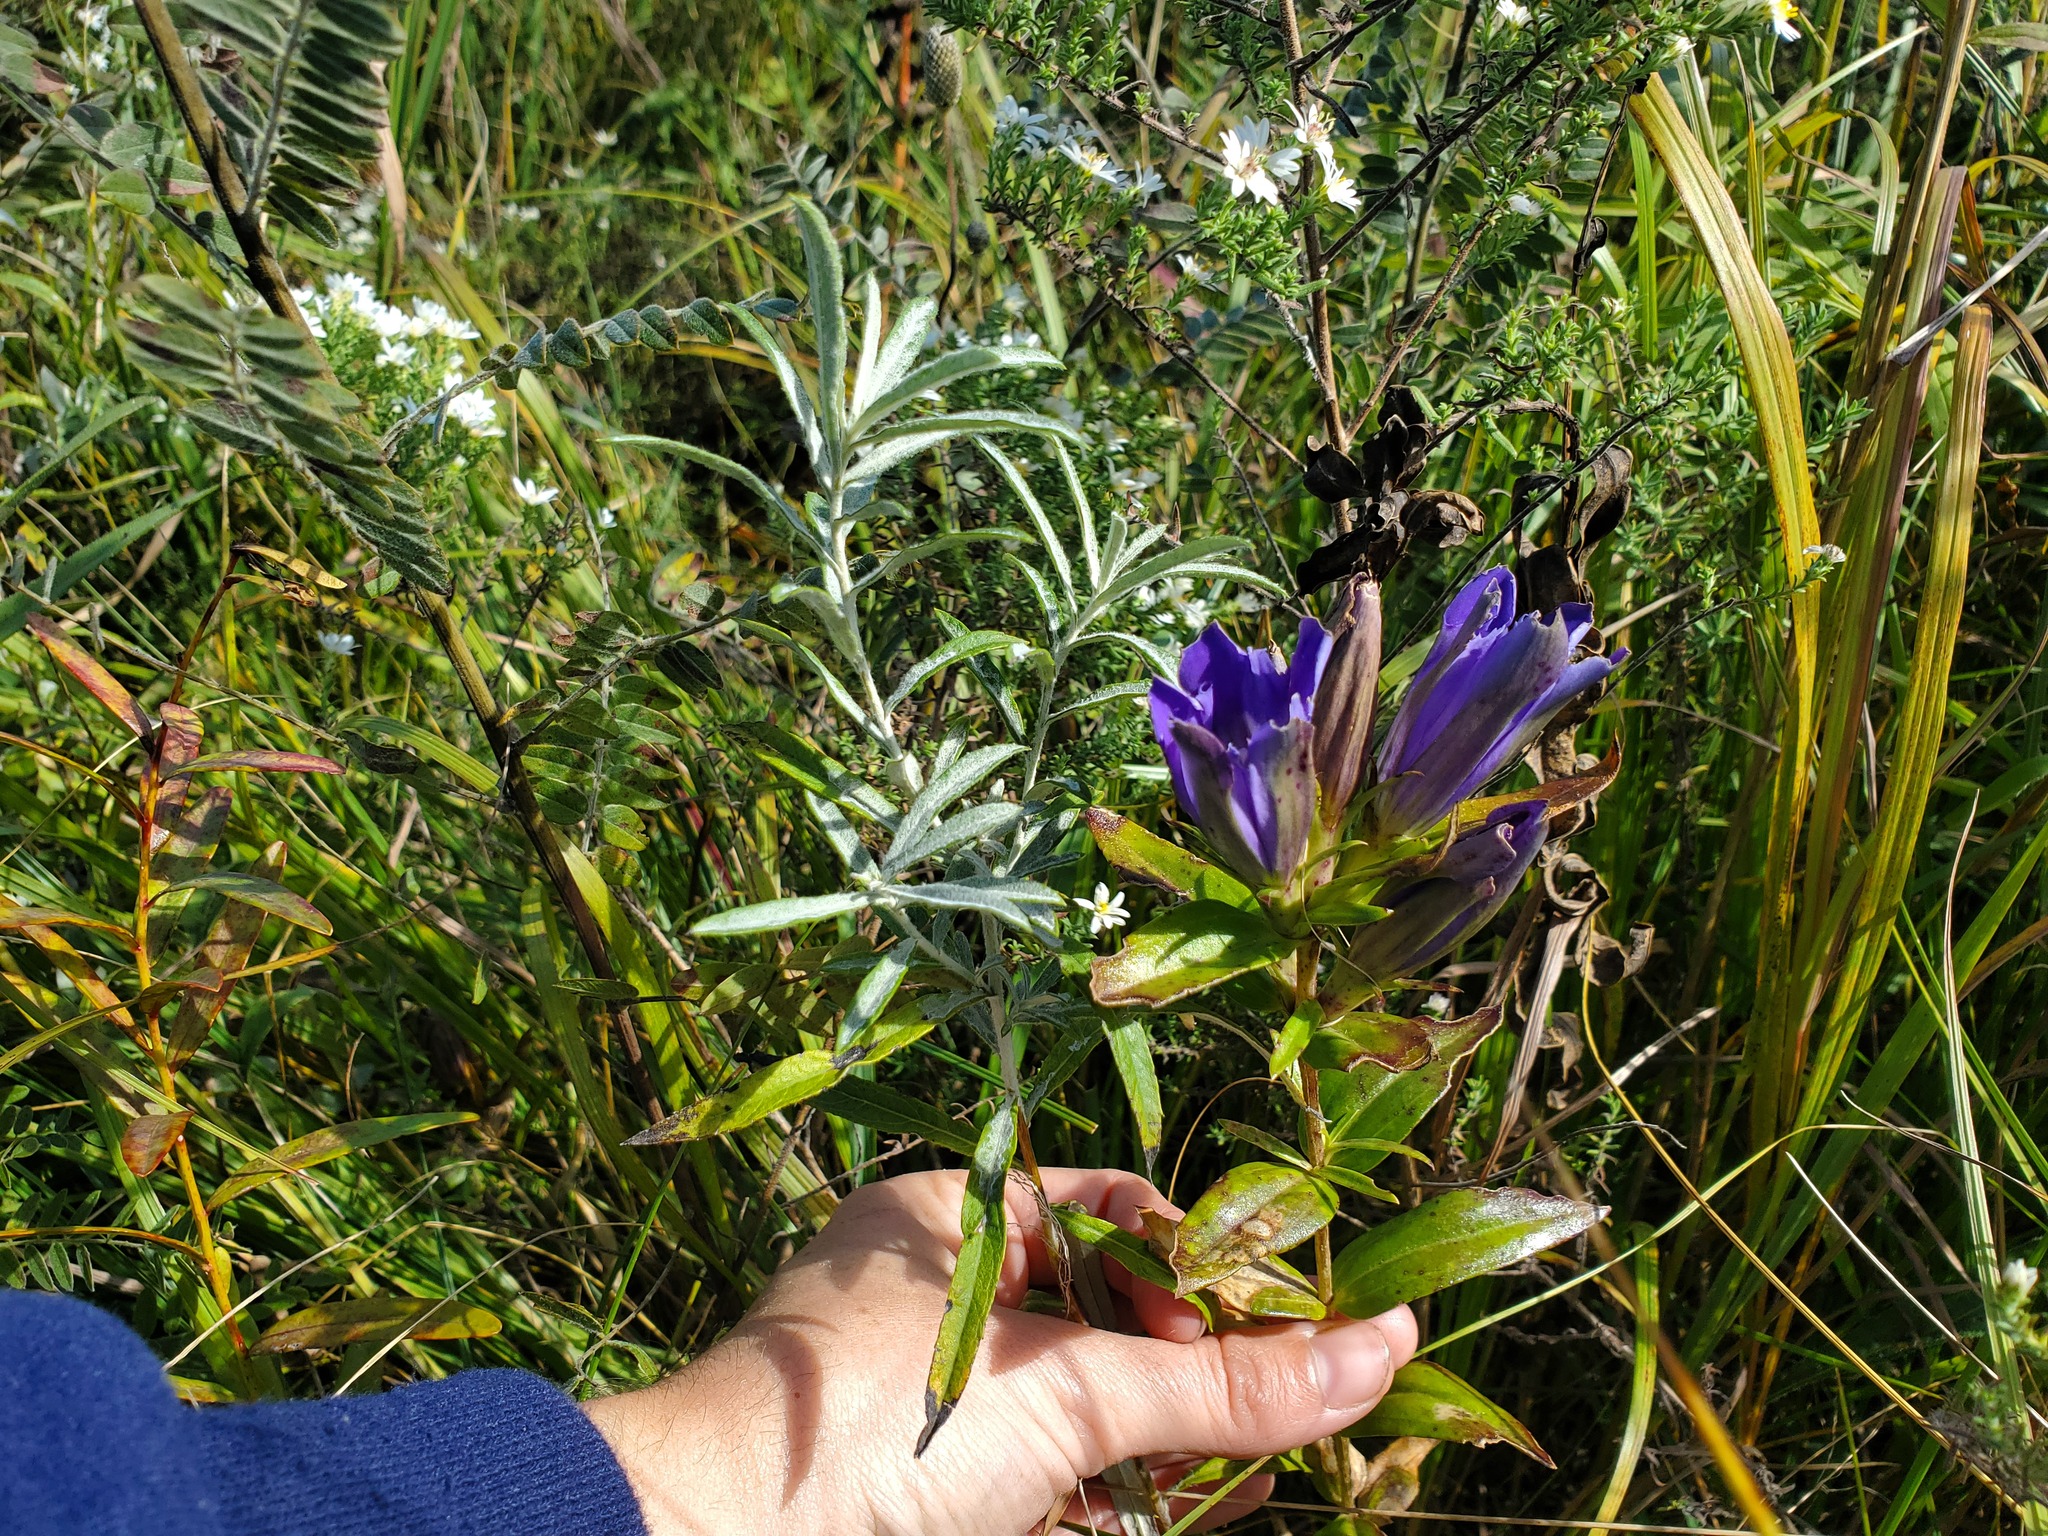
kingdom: Plantae
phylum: Tracheophyta
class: Magnoliopsida
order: Asterales
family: Asteraceae
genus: Artemisia
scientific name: Artemisia ludoviciana
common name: Western mugwort
